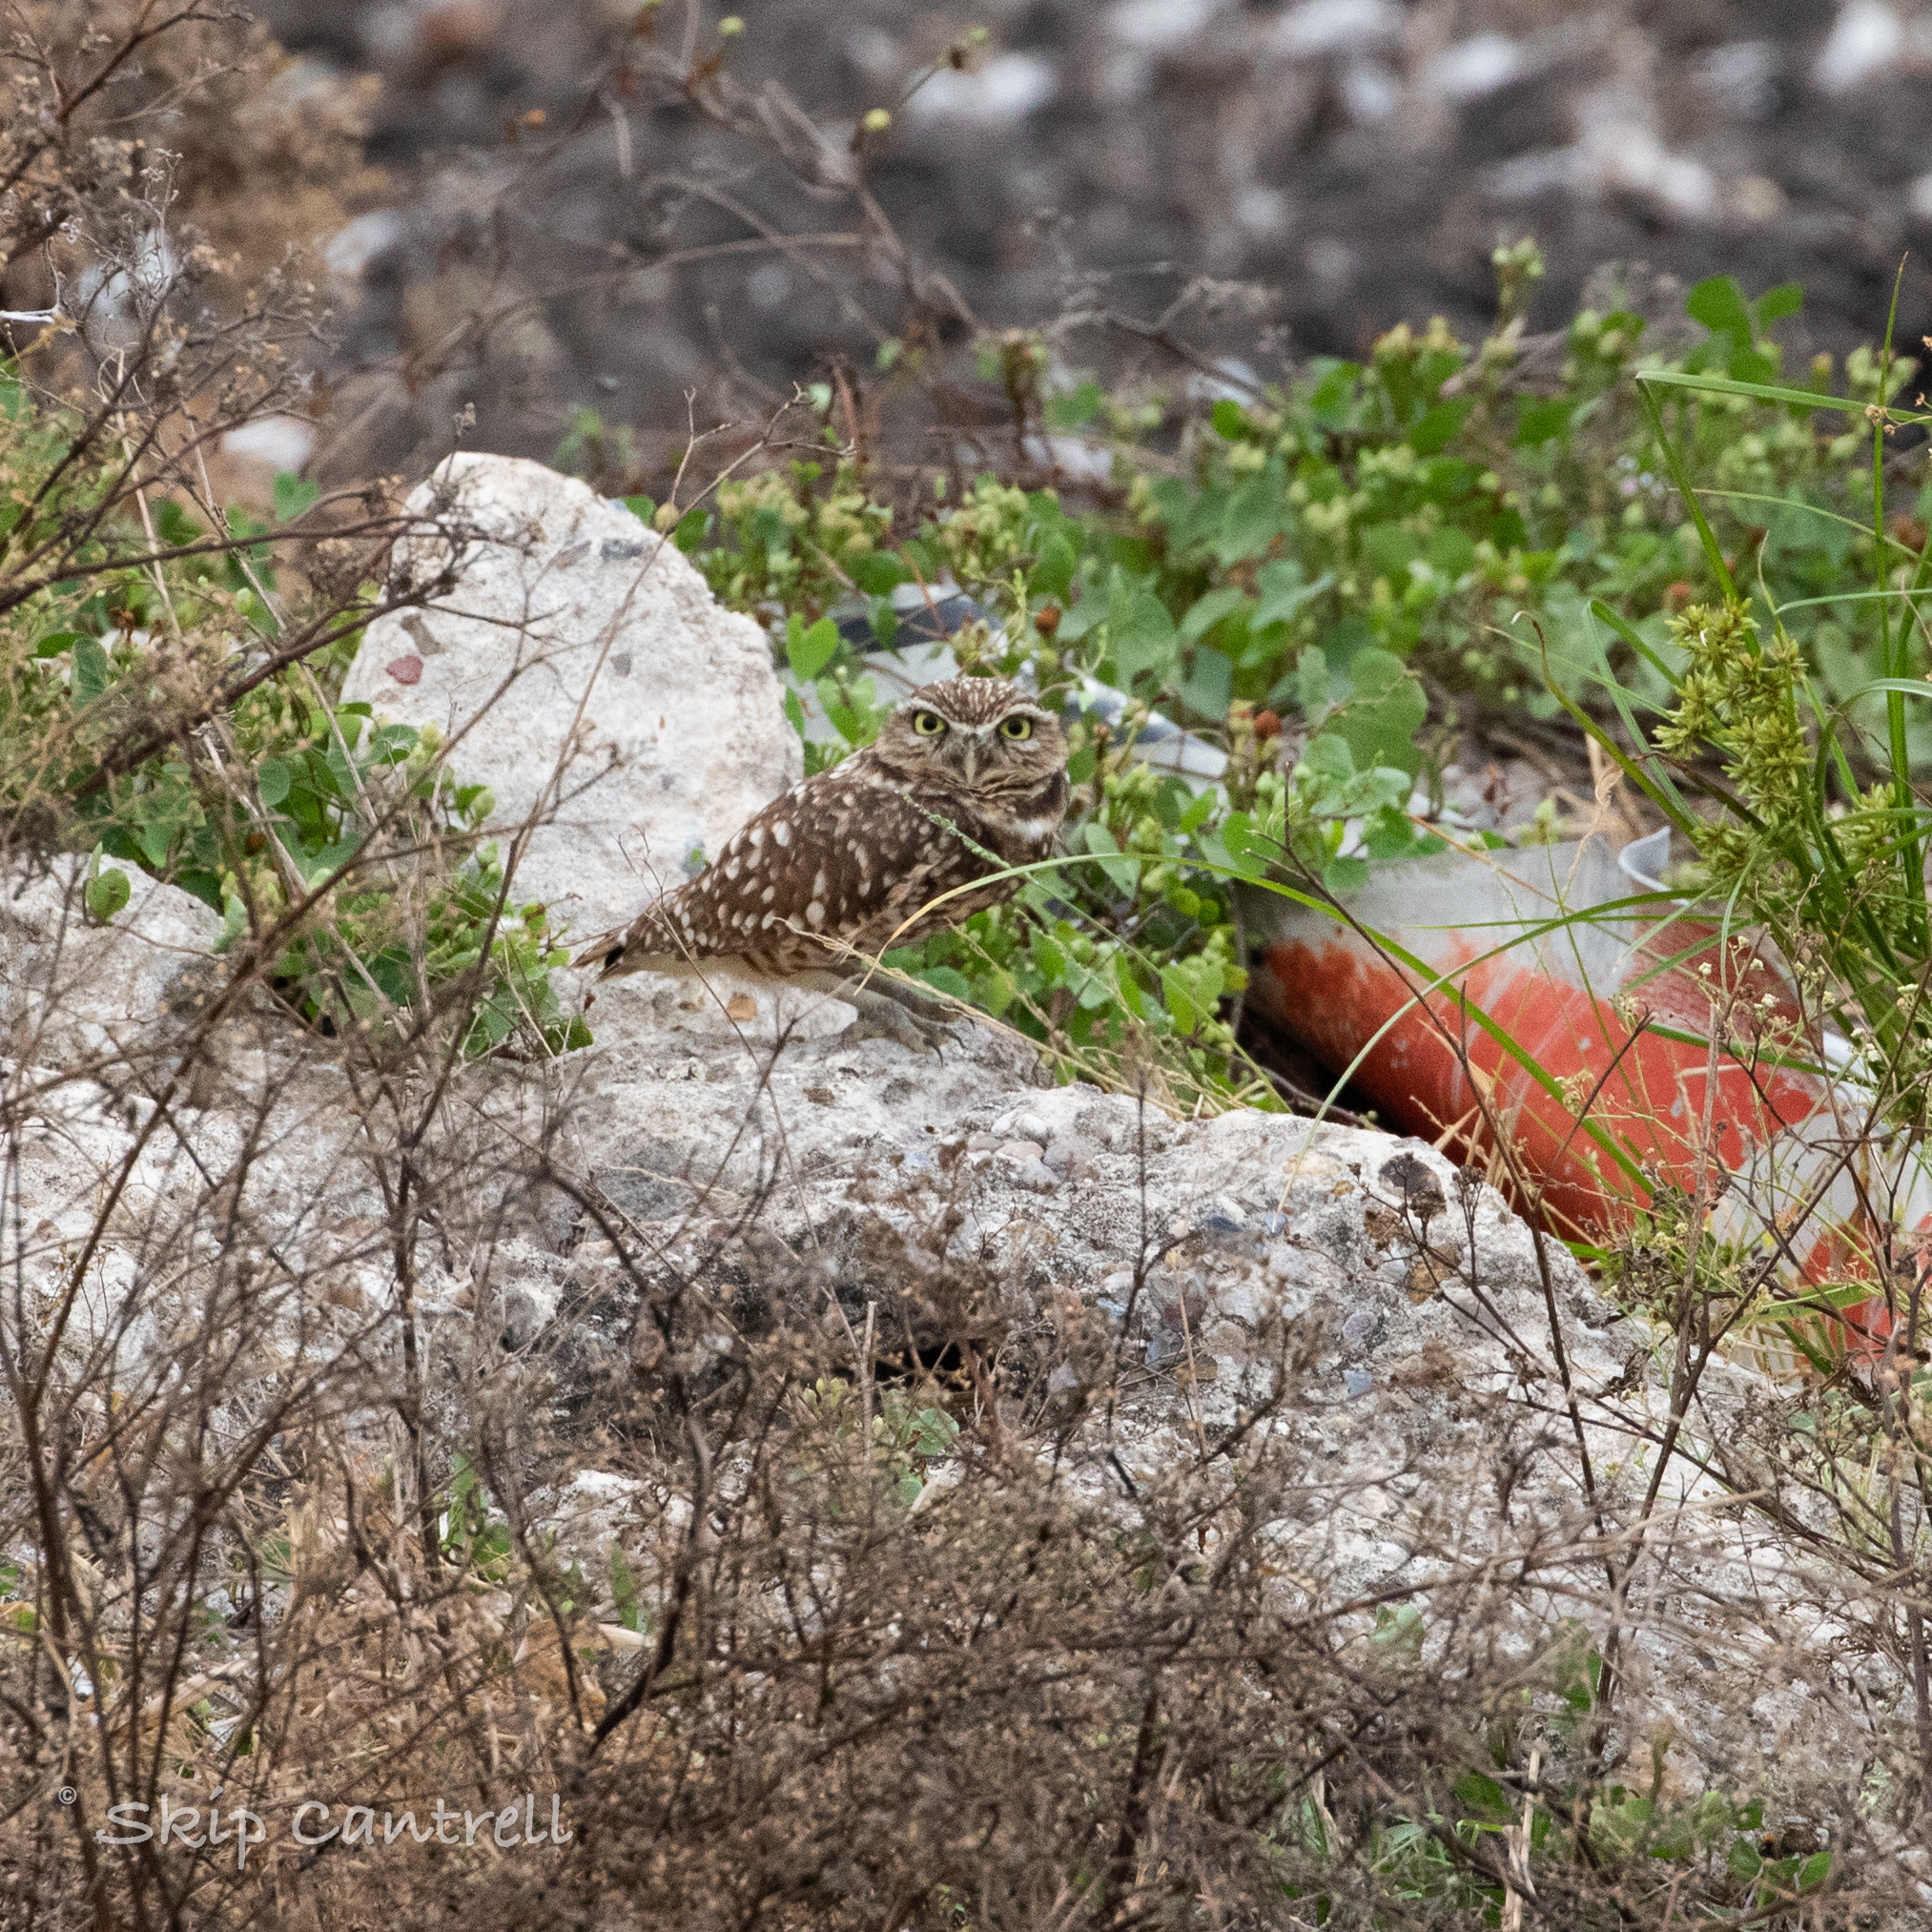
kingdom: Animalia
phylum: Chordata
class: Aves
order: Strigiformes
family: Strigidae
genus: Athene
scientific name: Athene cunicularia
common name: Burrowing owl
